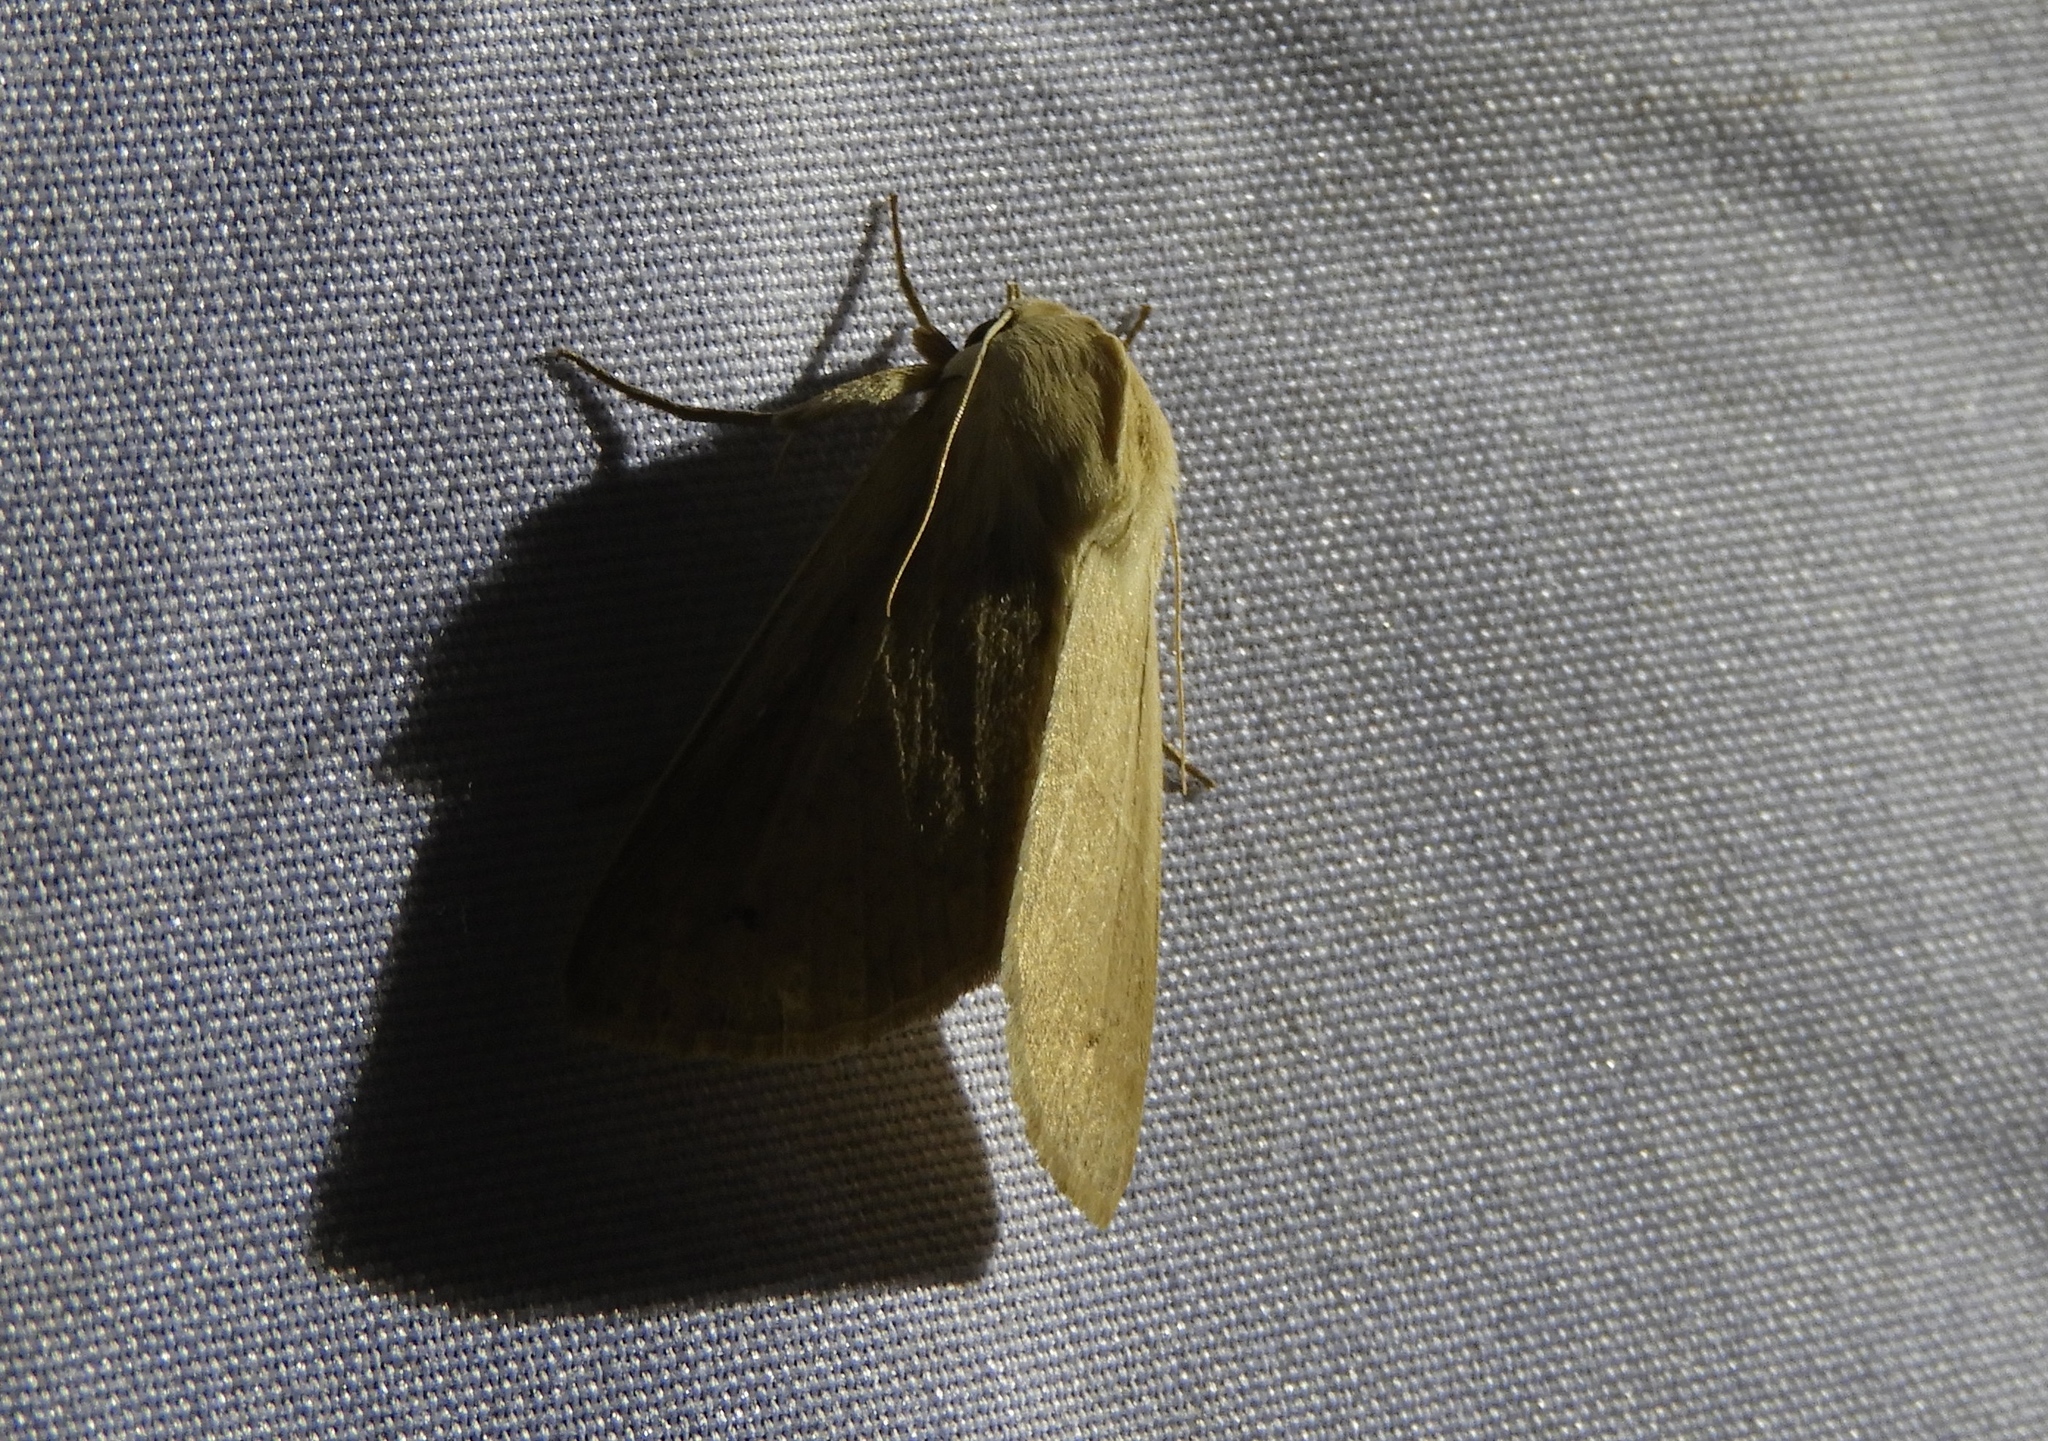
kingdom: Animalia
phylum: Arthropoda
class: Insecta
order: Lepidoptera
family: Noctuidae
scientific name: Noctuidae
